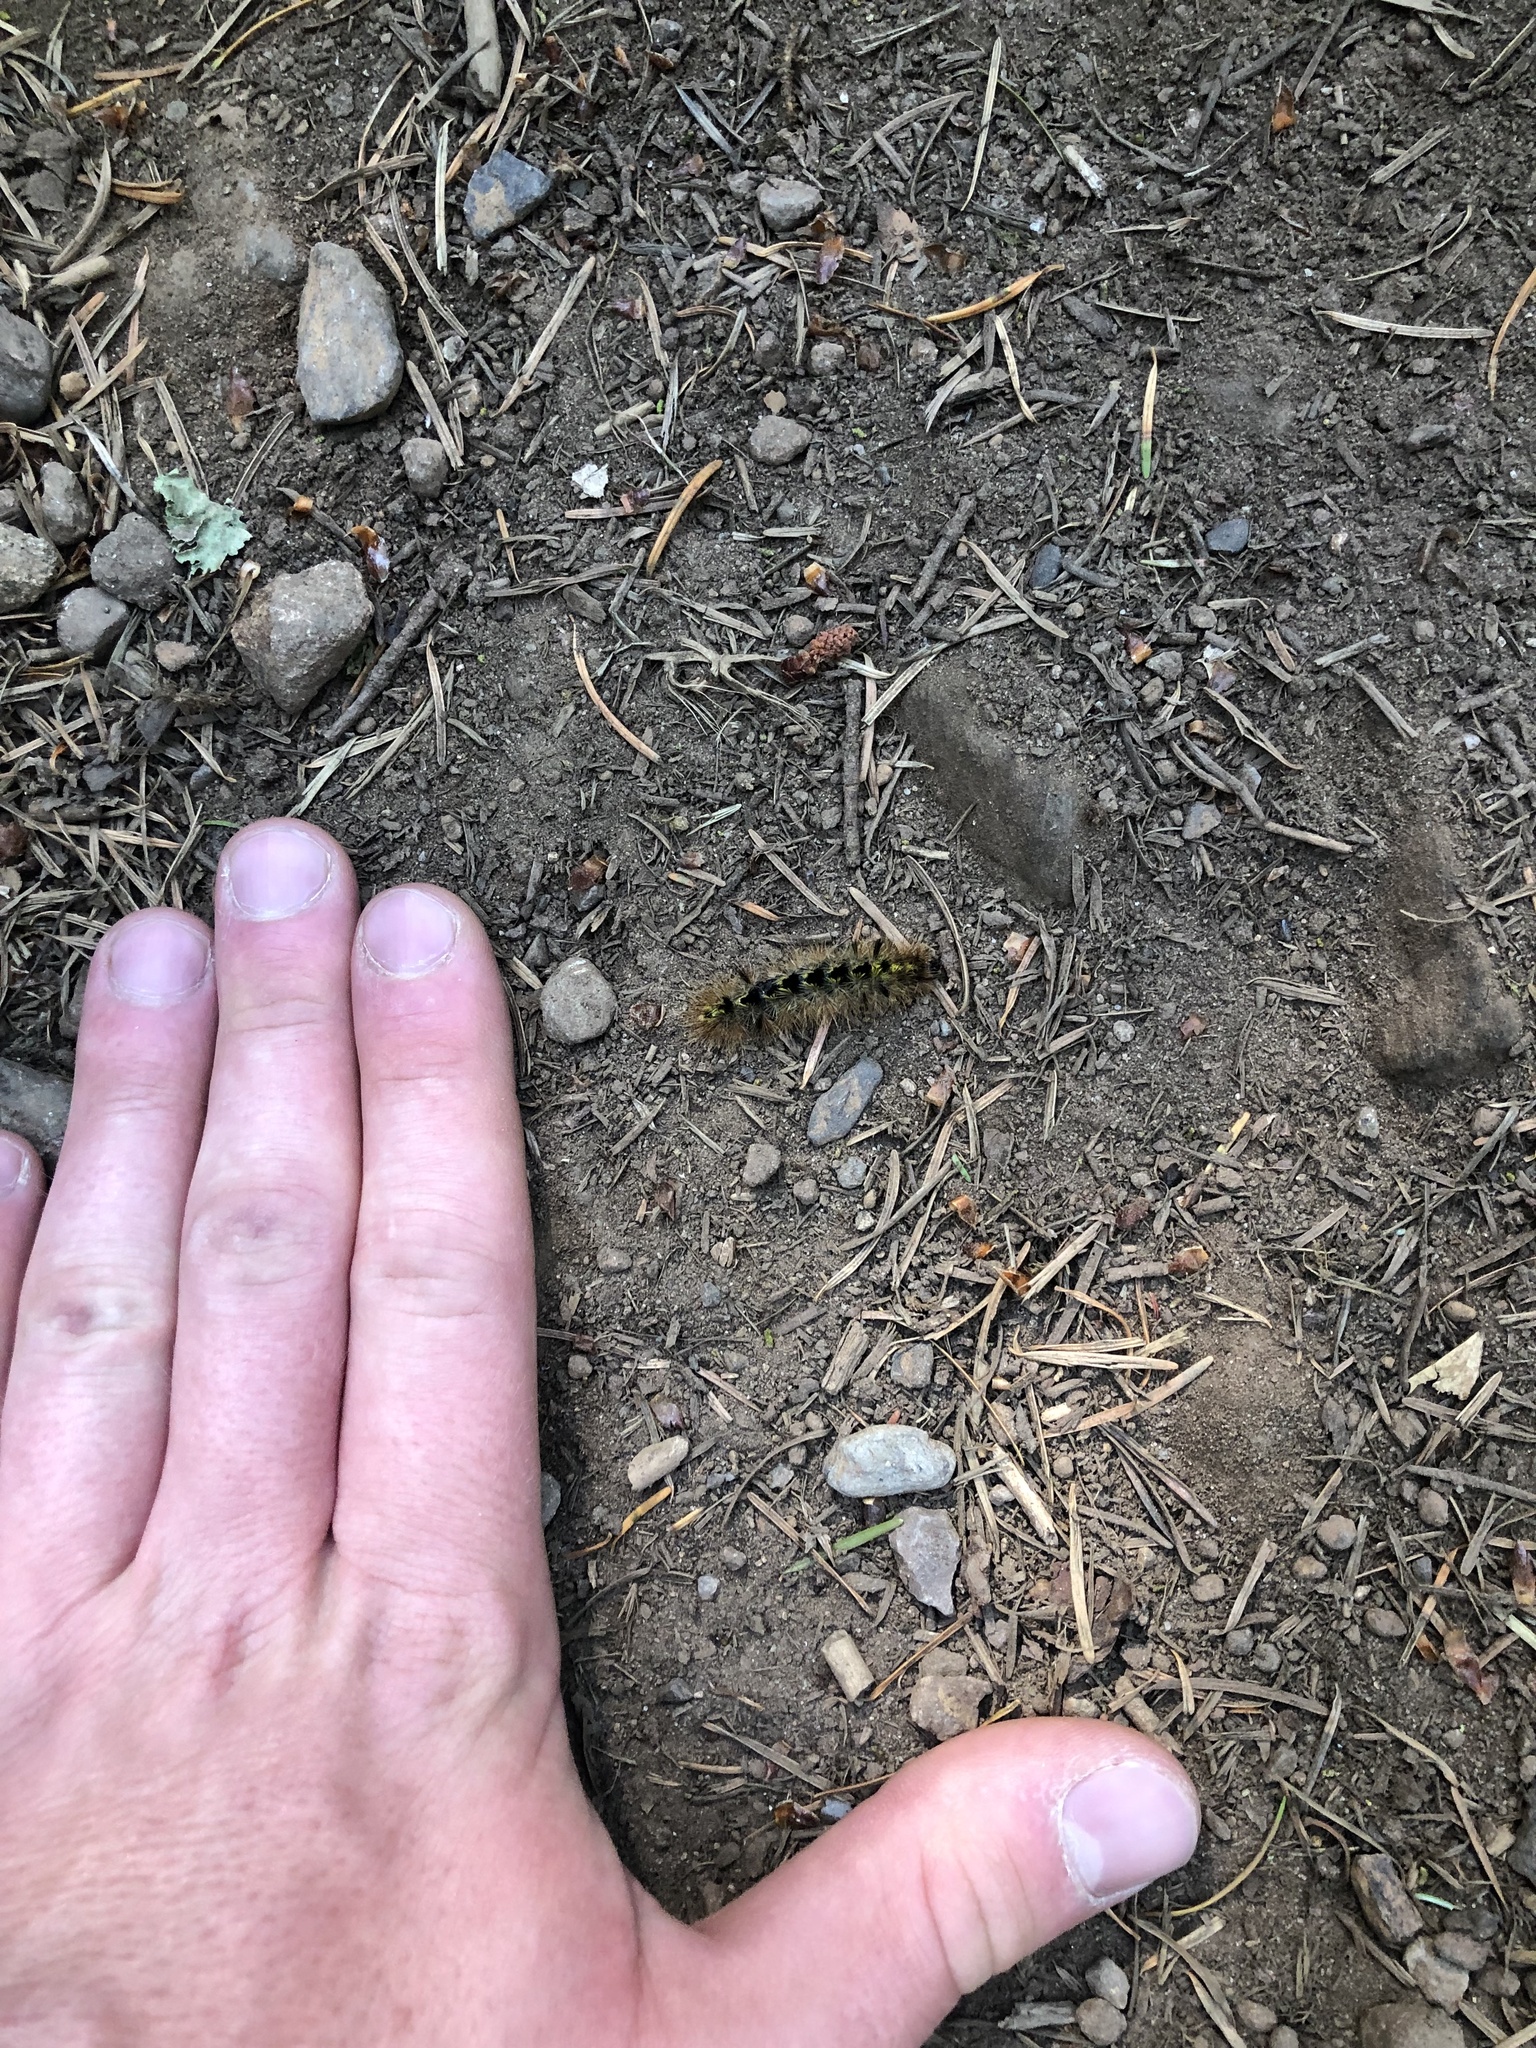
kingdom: Animalia
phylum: Arthropoda
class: Insecta
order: Lepidoptera
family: Erebidae
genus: Lophocampa
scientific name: Lophocampa argentata
